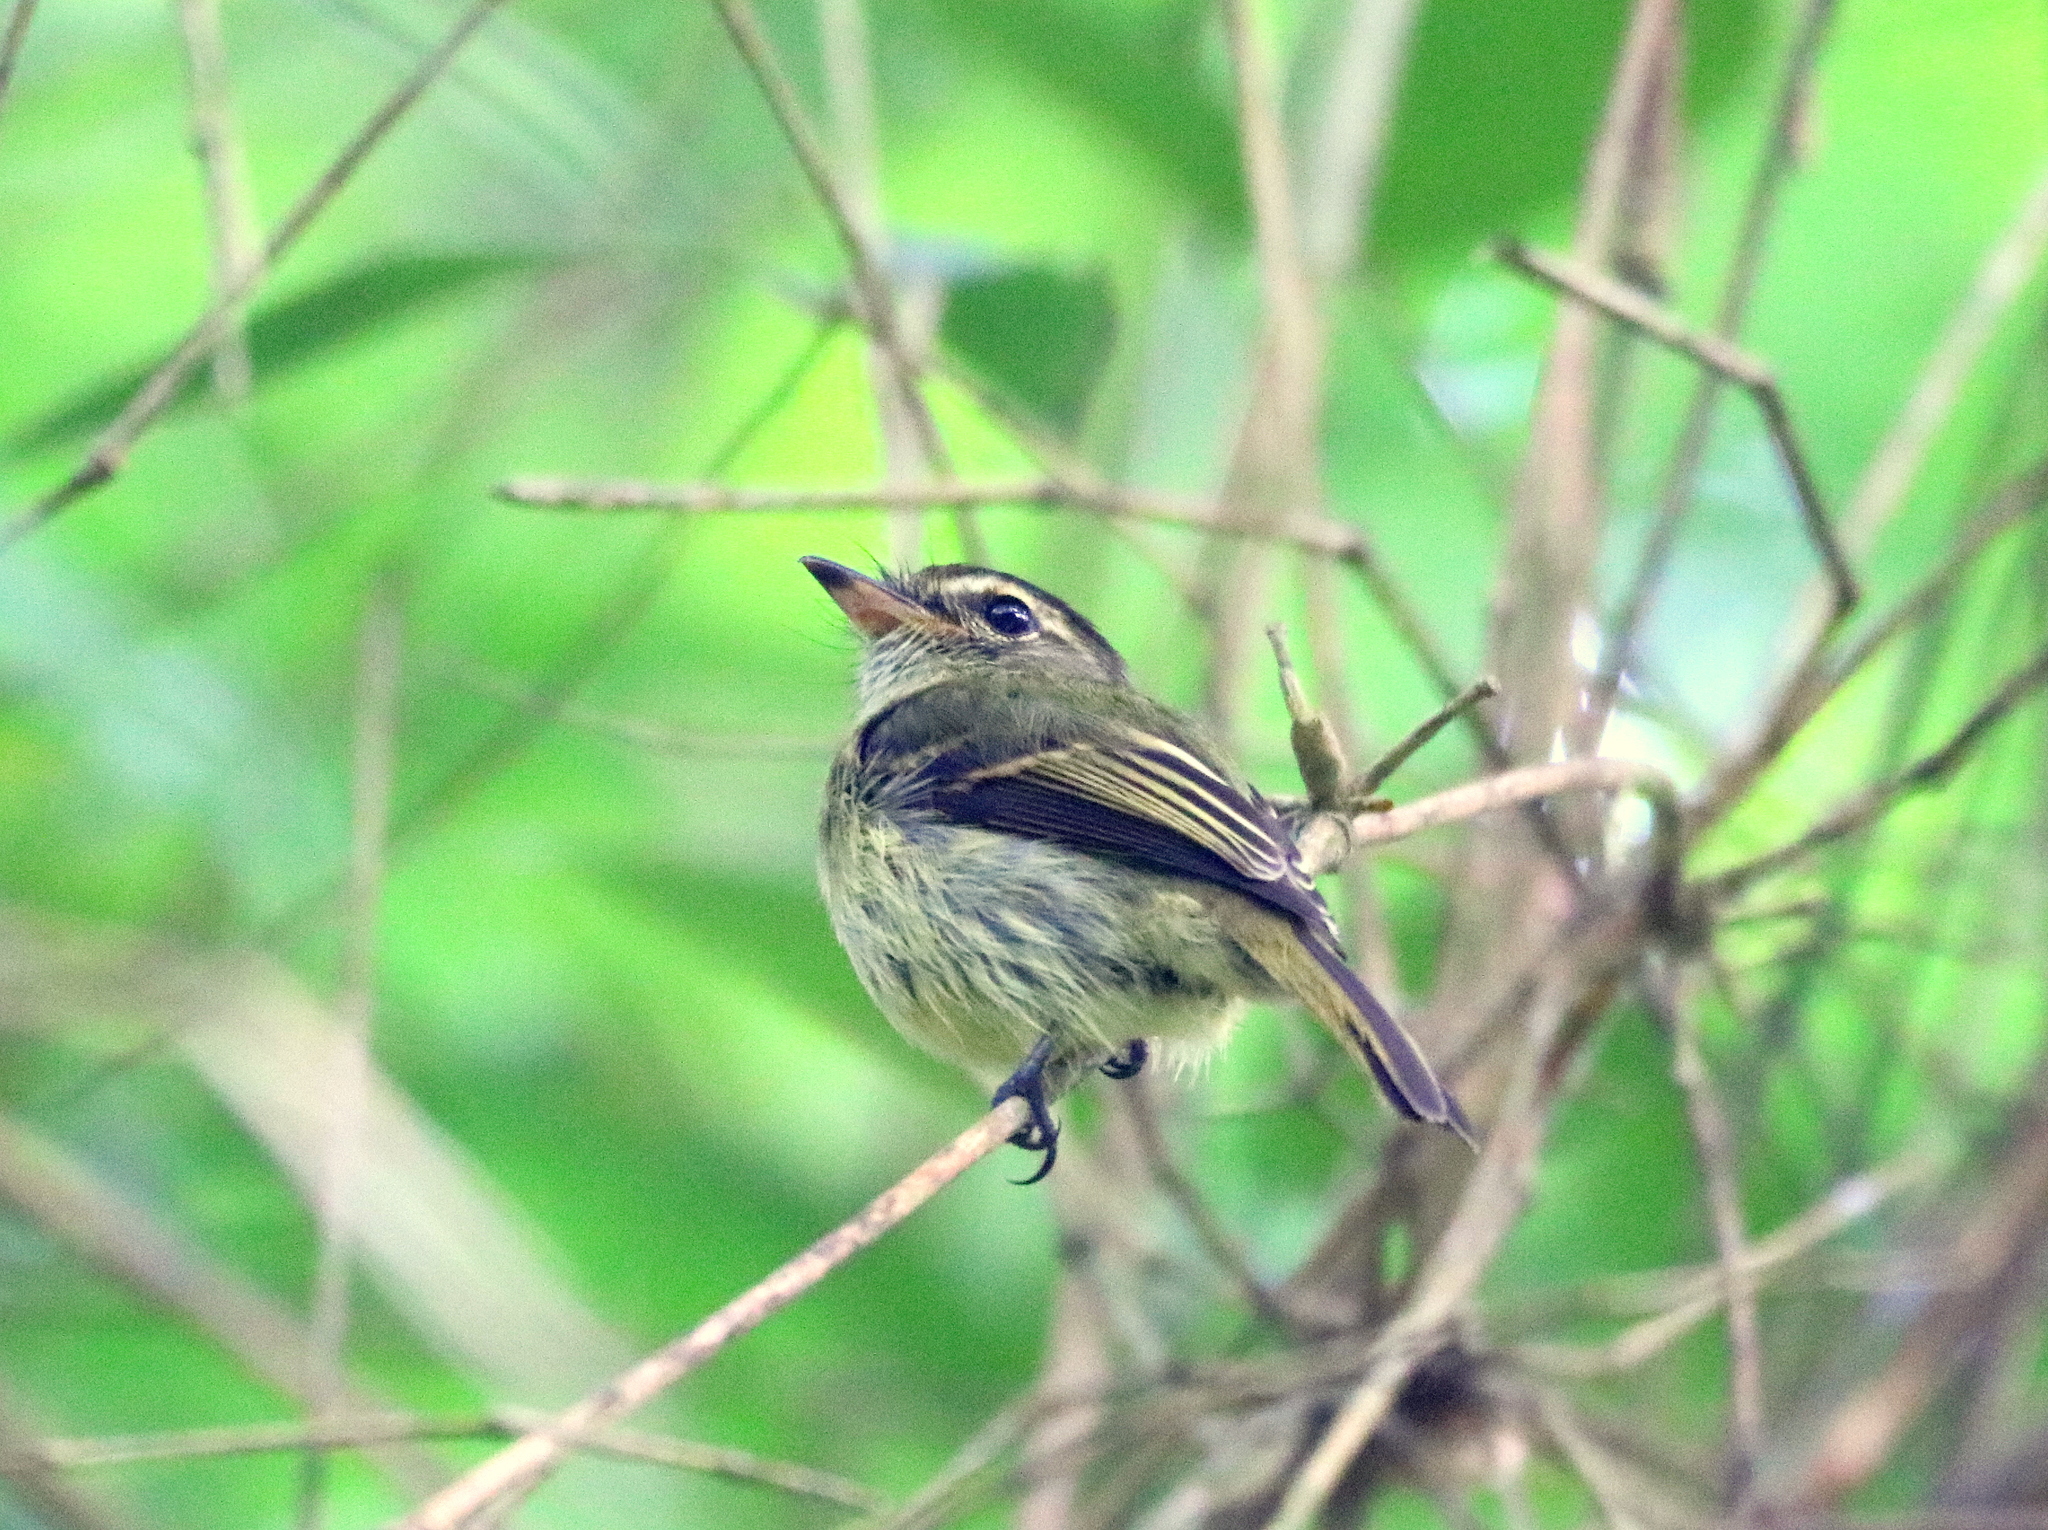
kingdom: Animalia
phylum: Chordata
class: Aves
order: Passeriformes
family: Tyrannidae
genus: Ramphotrigon
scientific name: Ramphotrigon megacephalum
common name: Large-headed flatbill
